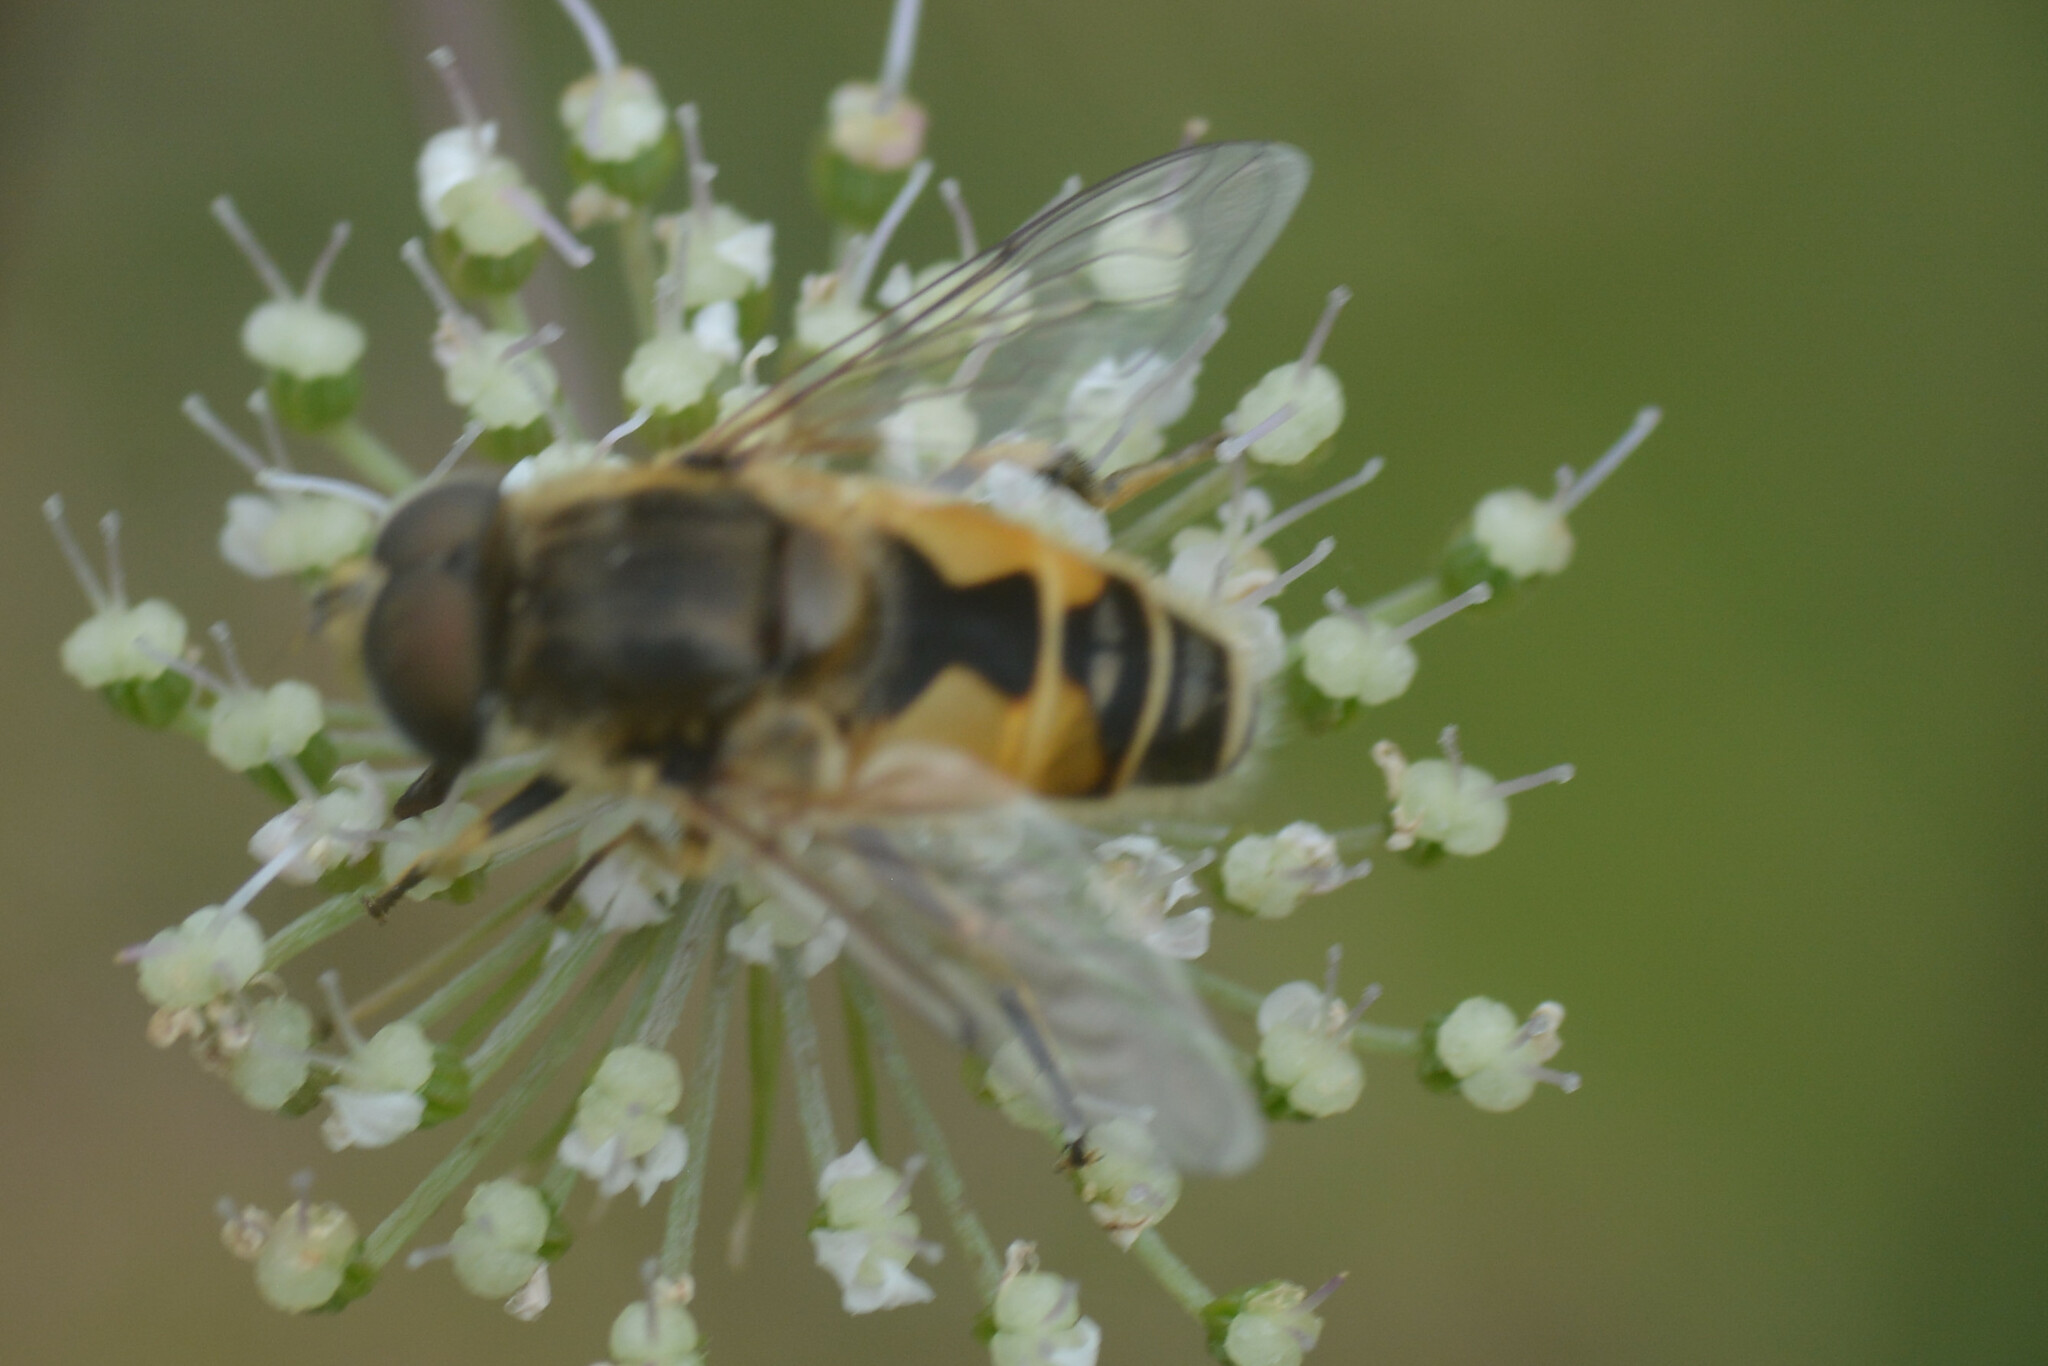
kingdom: Animalia
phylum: Arthropoda
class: Insecta
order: Diptera
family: Syrphidae
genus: Eristalis
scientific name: Eristalis arbustorum
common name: Hover fly
